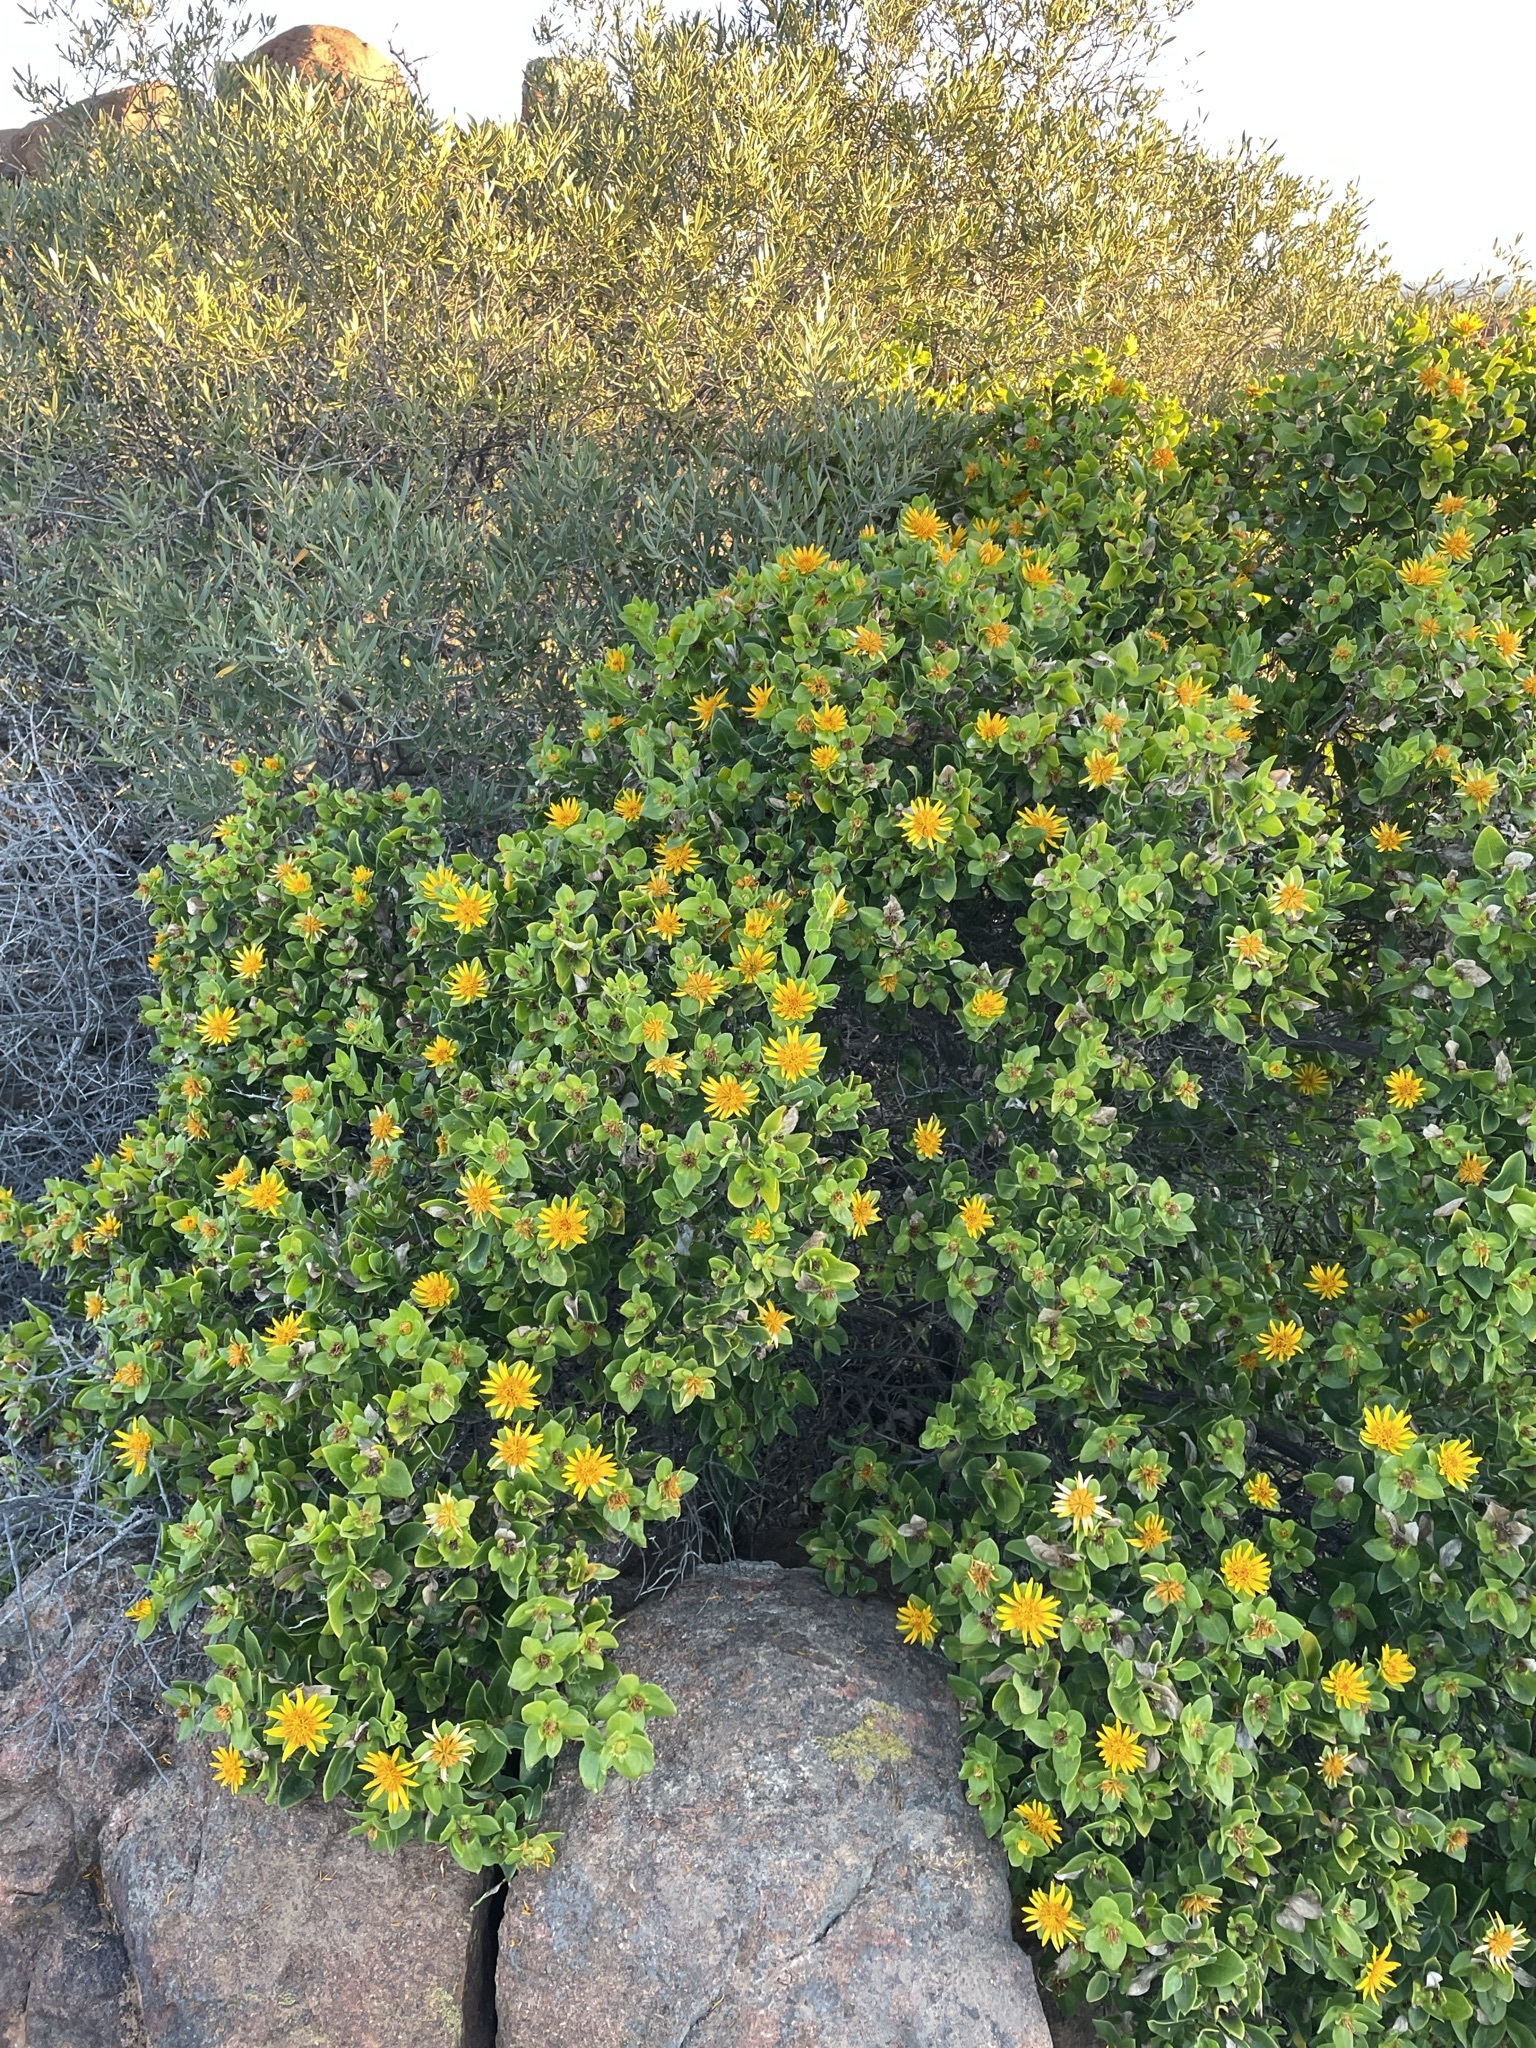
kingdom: Plantae
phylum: Tracheophyta
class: Magnoliopsida
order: Asterales
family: Asteraceae
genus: Didelta
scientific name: Didelta spinosa
